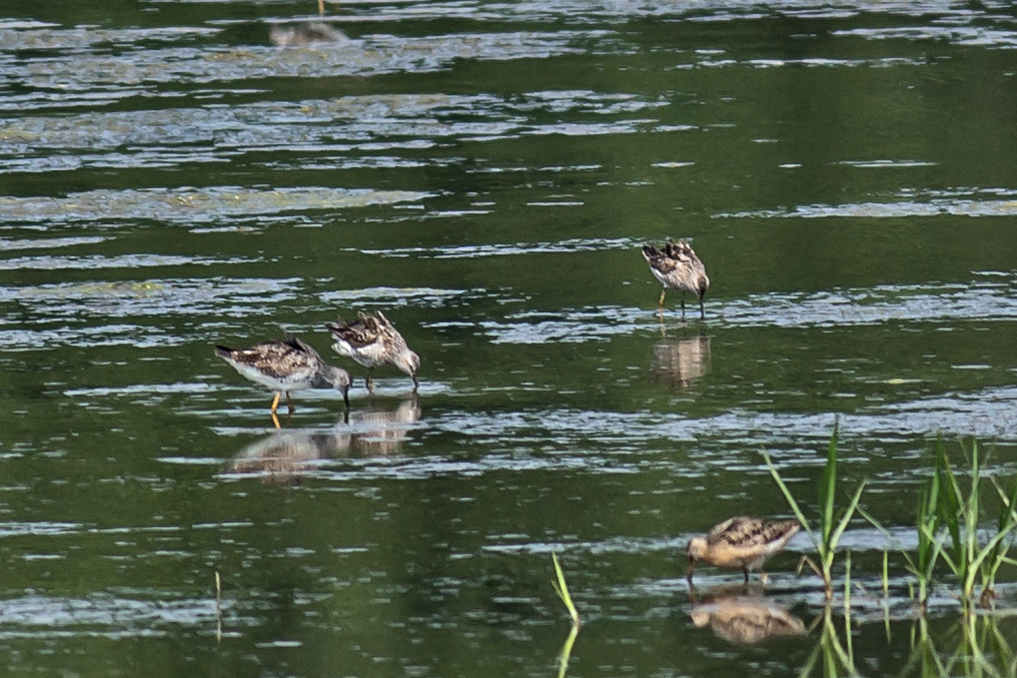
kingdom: Animalia
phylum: Chordata
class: Aves
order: Charadriiformes
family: Scolopacidae
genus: Calidris
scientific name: Calidris himantopus
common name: Stilt sandpiper
